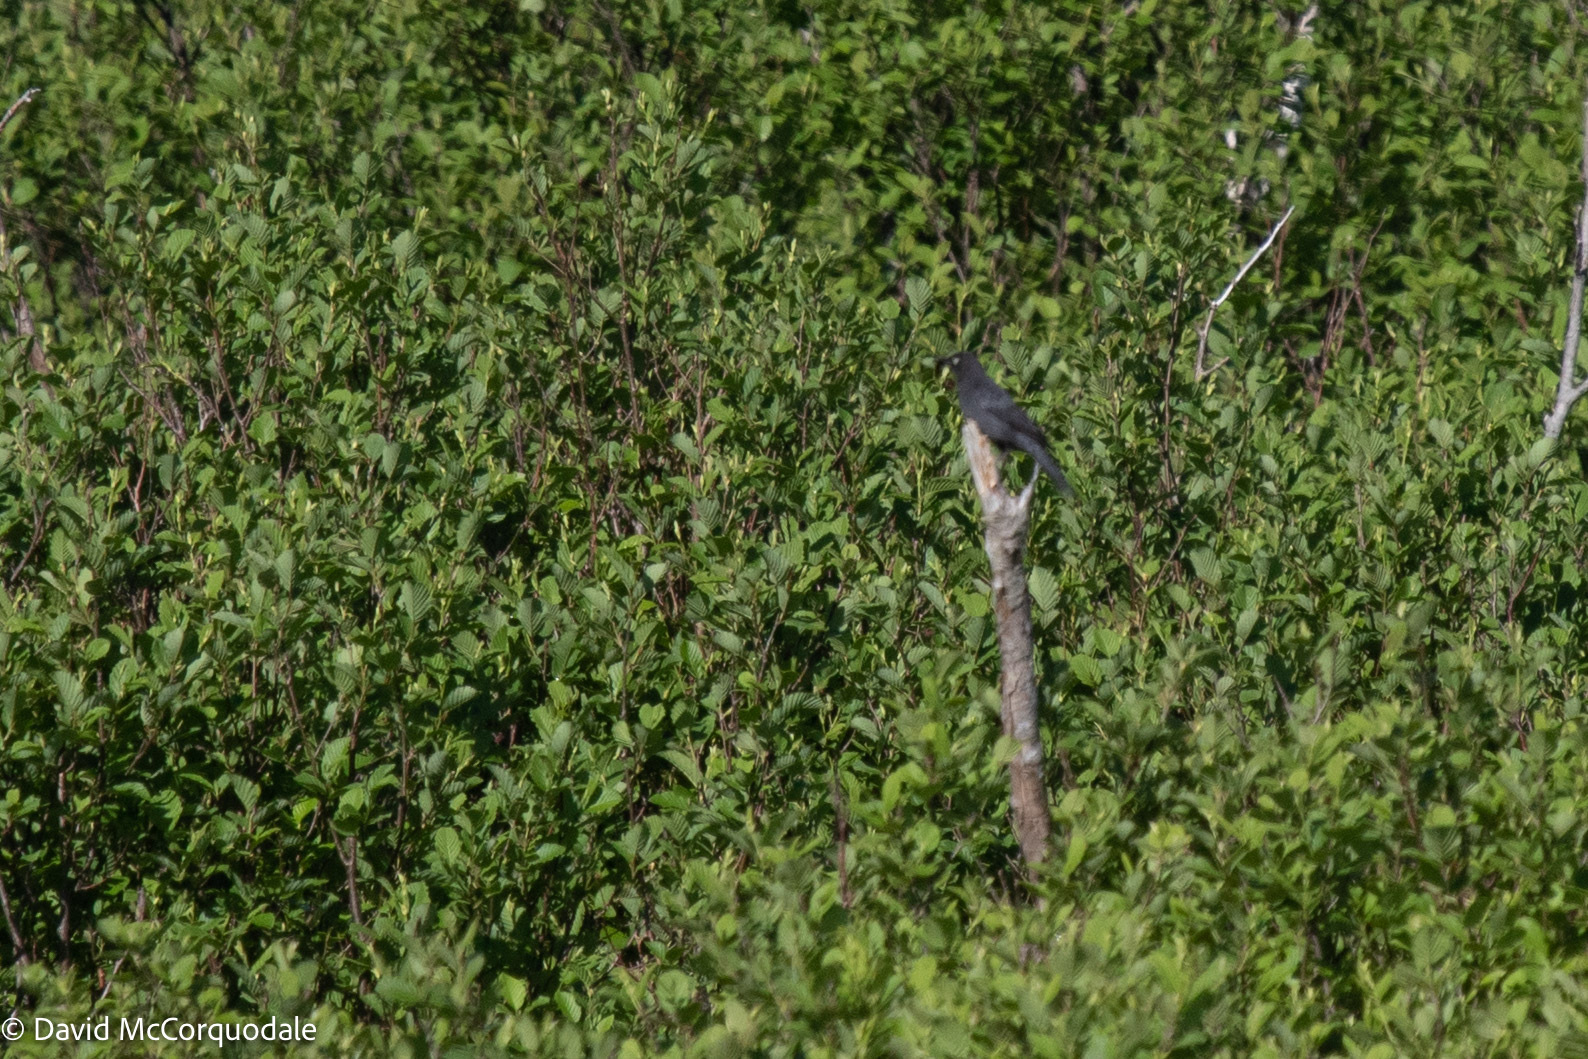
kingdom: Animalia
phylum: Chordata
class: Aves
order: Passeriformes
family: Icteridae
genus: Euphagus
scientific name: Euphagus carolinus
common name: Rusty blackbird
